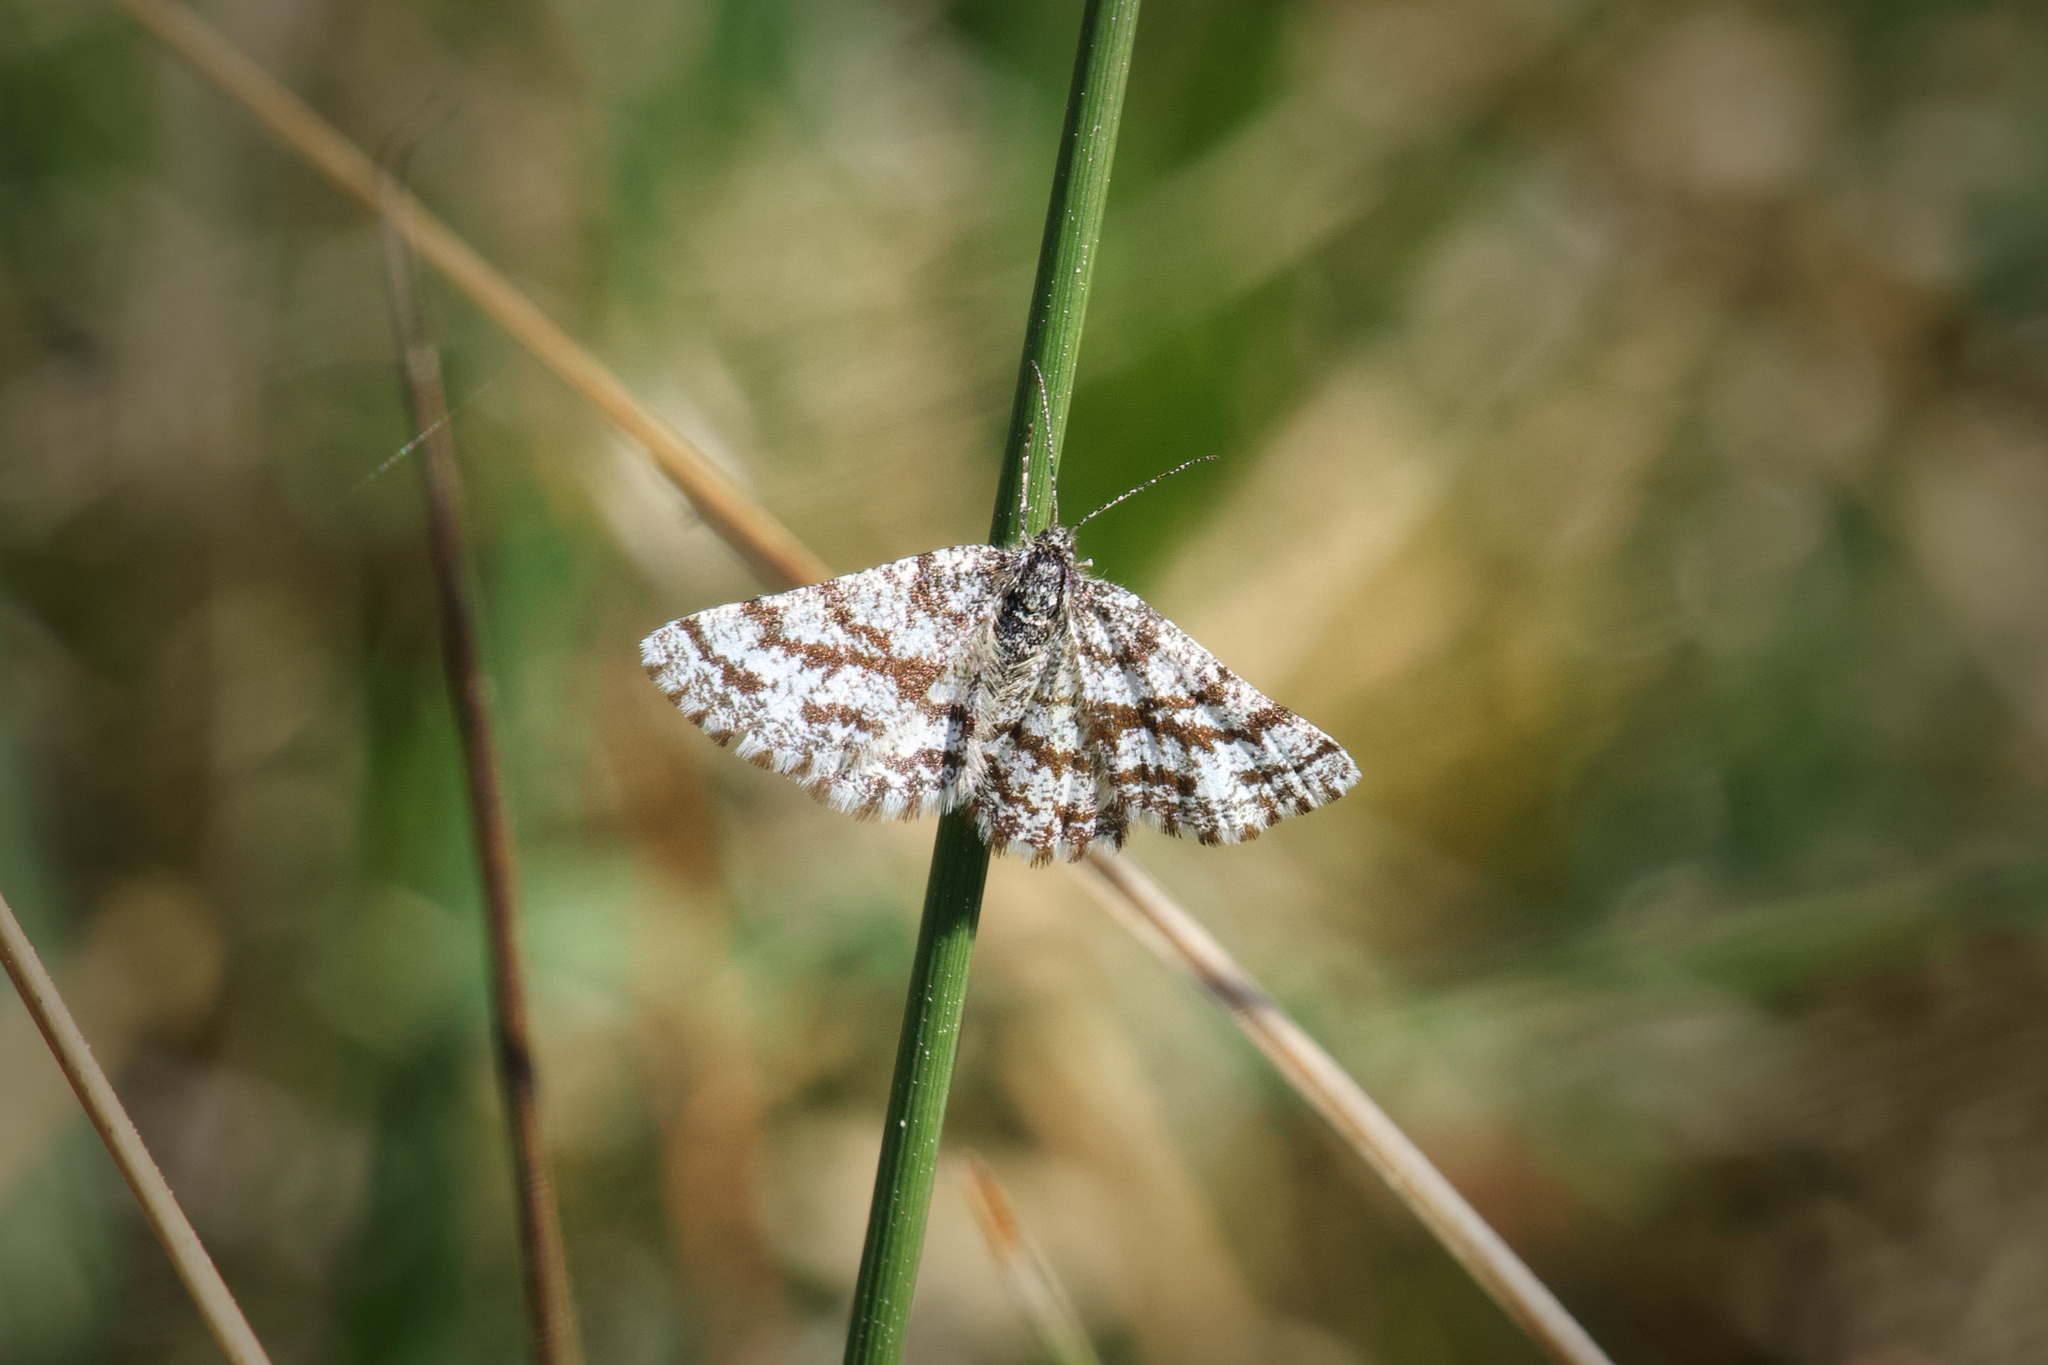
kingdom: Animalia
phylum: Arthropoda
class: Insecta
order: Lepidoptera
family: Geometridae
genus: Ematurga
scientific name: Ematurga atomaria
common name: Common heath
